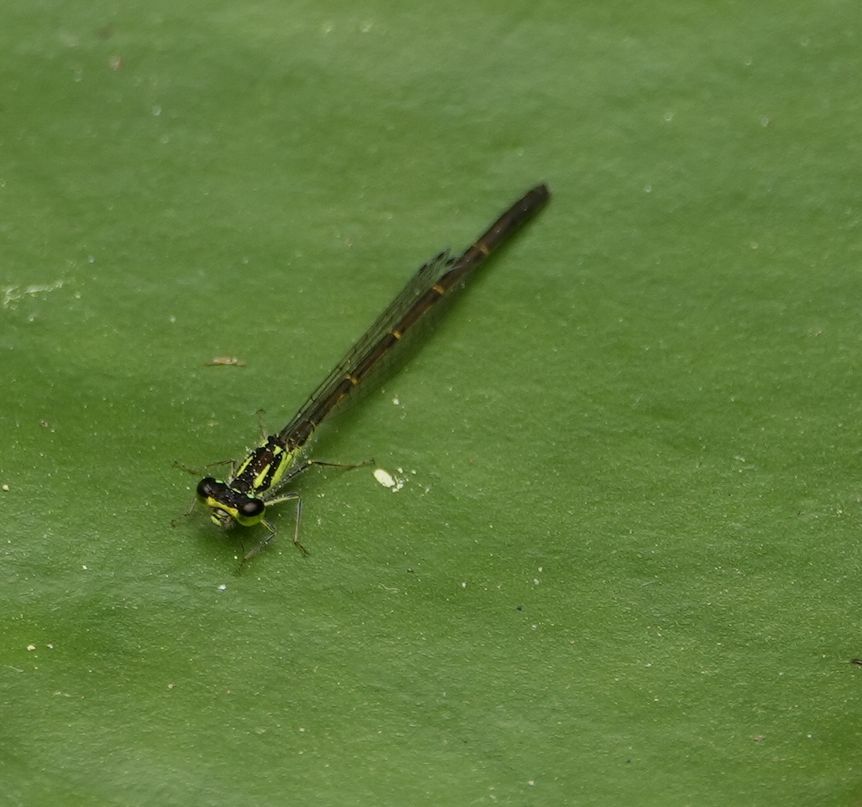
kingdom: Animalia
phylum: Arthropoda
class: Insecta
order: Odonata
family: Coenagrionidae
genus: Ischnura
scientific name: Ischnura posita
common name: Fragile forktail
